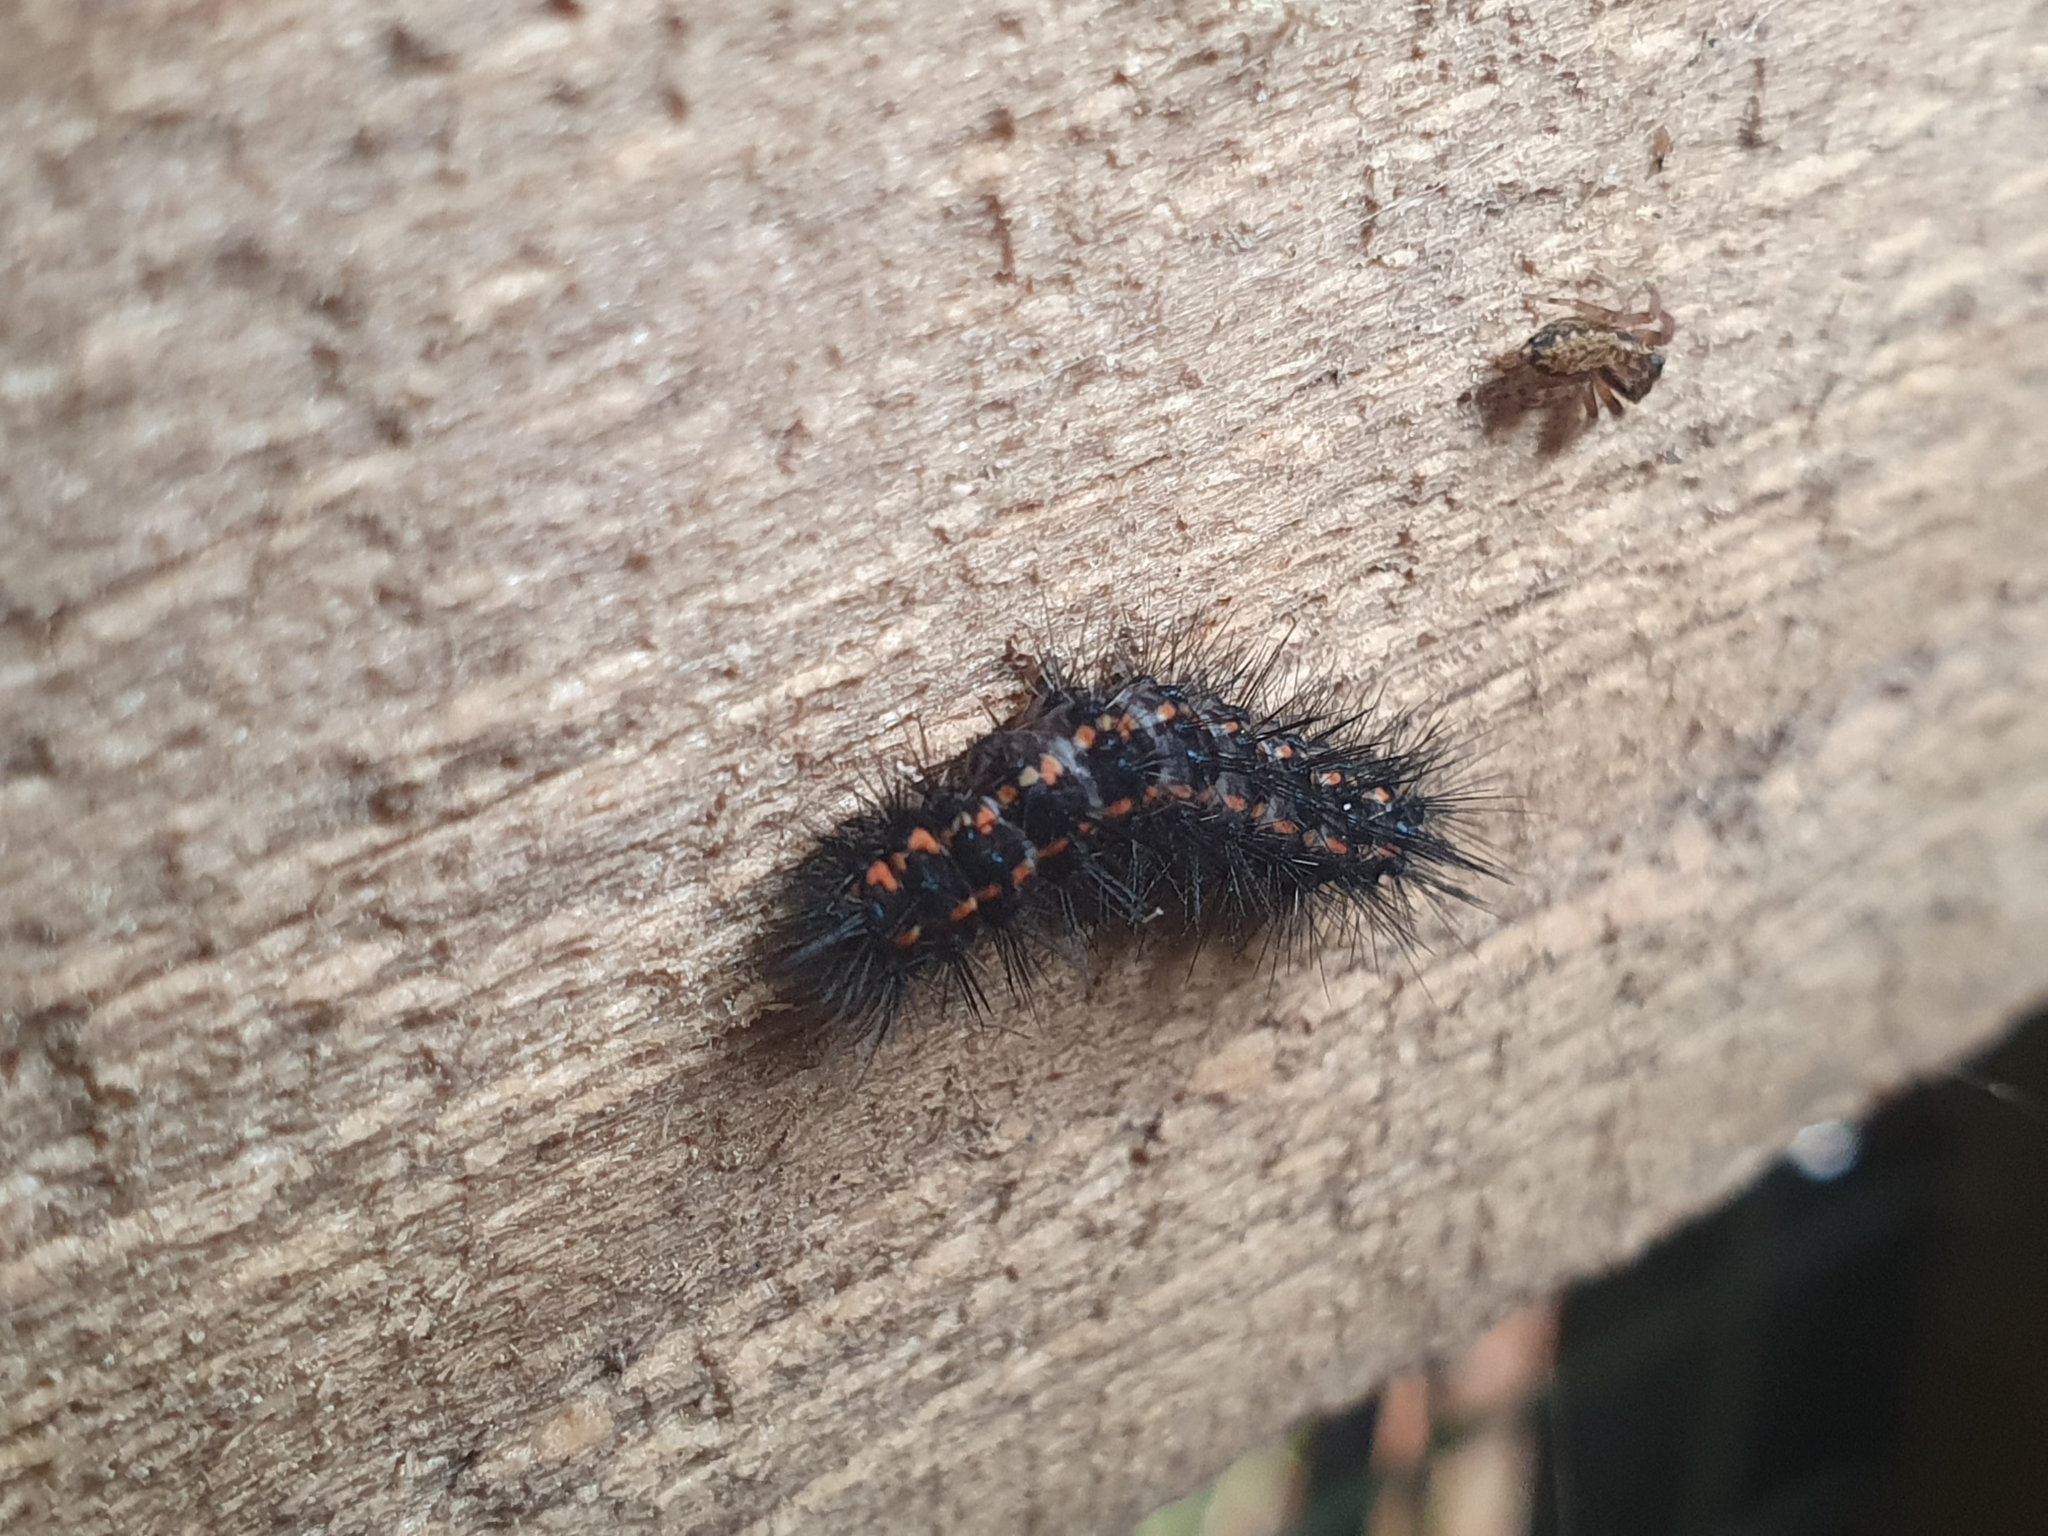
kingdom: Animalia
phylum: Arthropoda
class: Insecta
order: Lepidoptera
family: Erebidae
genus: Nyctemera
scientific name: Nyctemera annulatum
